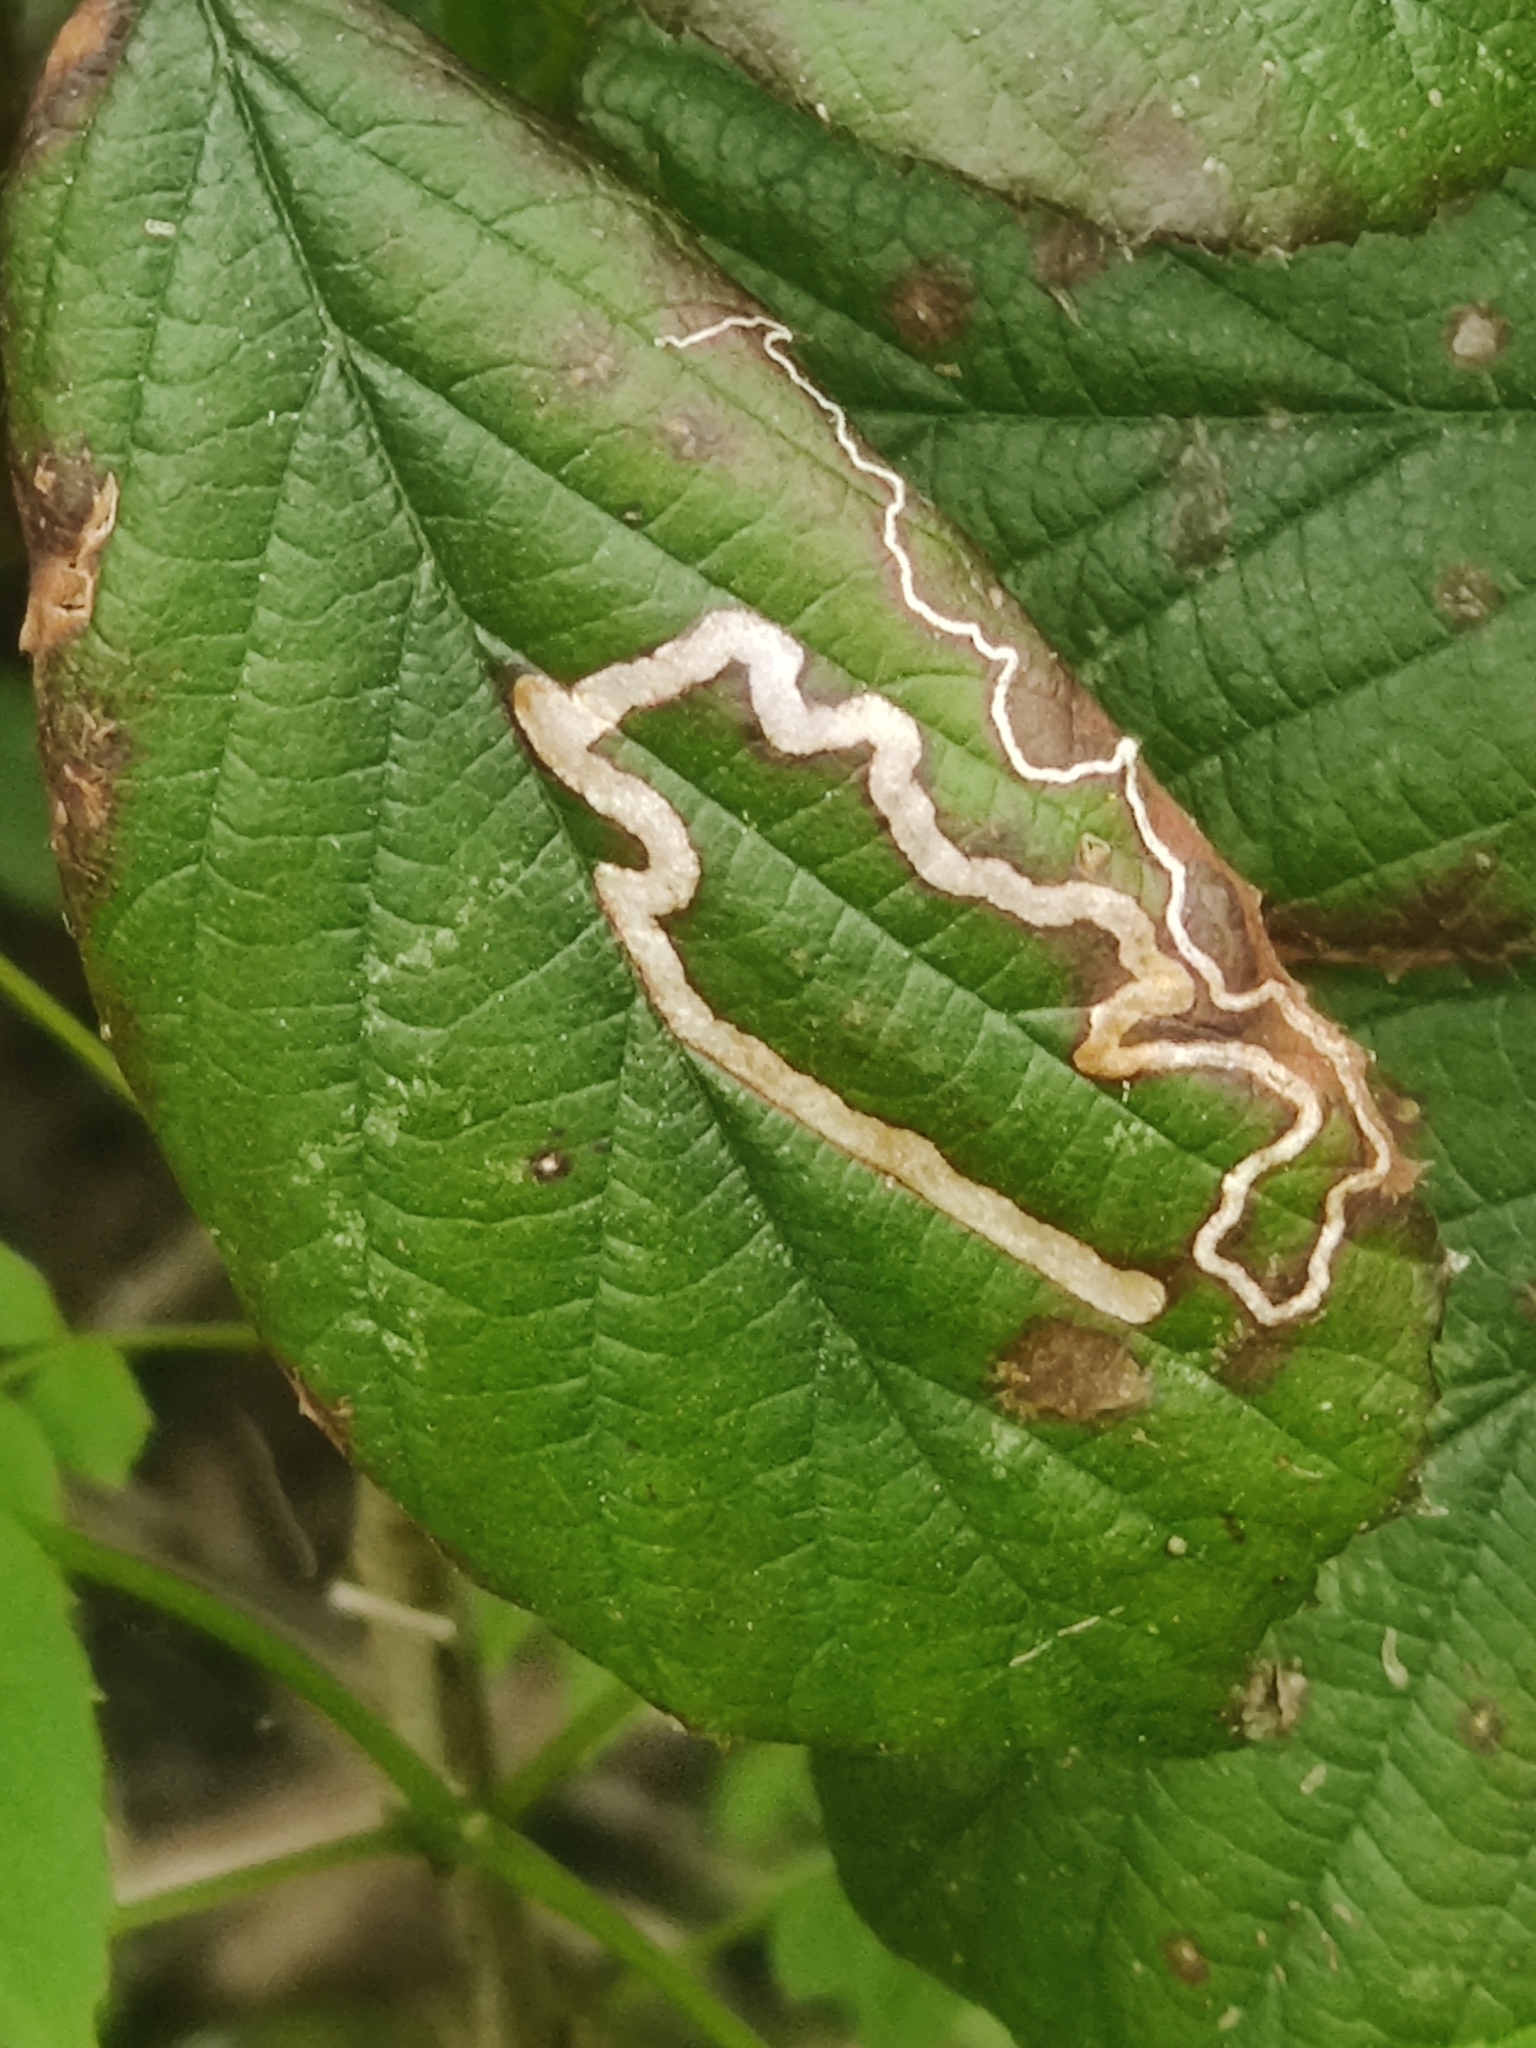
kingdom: Animalia
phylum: Arthropoda
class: Insecta
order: Lepidoptera
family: Nepticulidae
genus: Stigmella
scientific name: Stigmella aurella
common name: Golden pigmy
